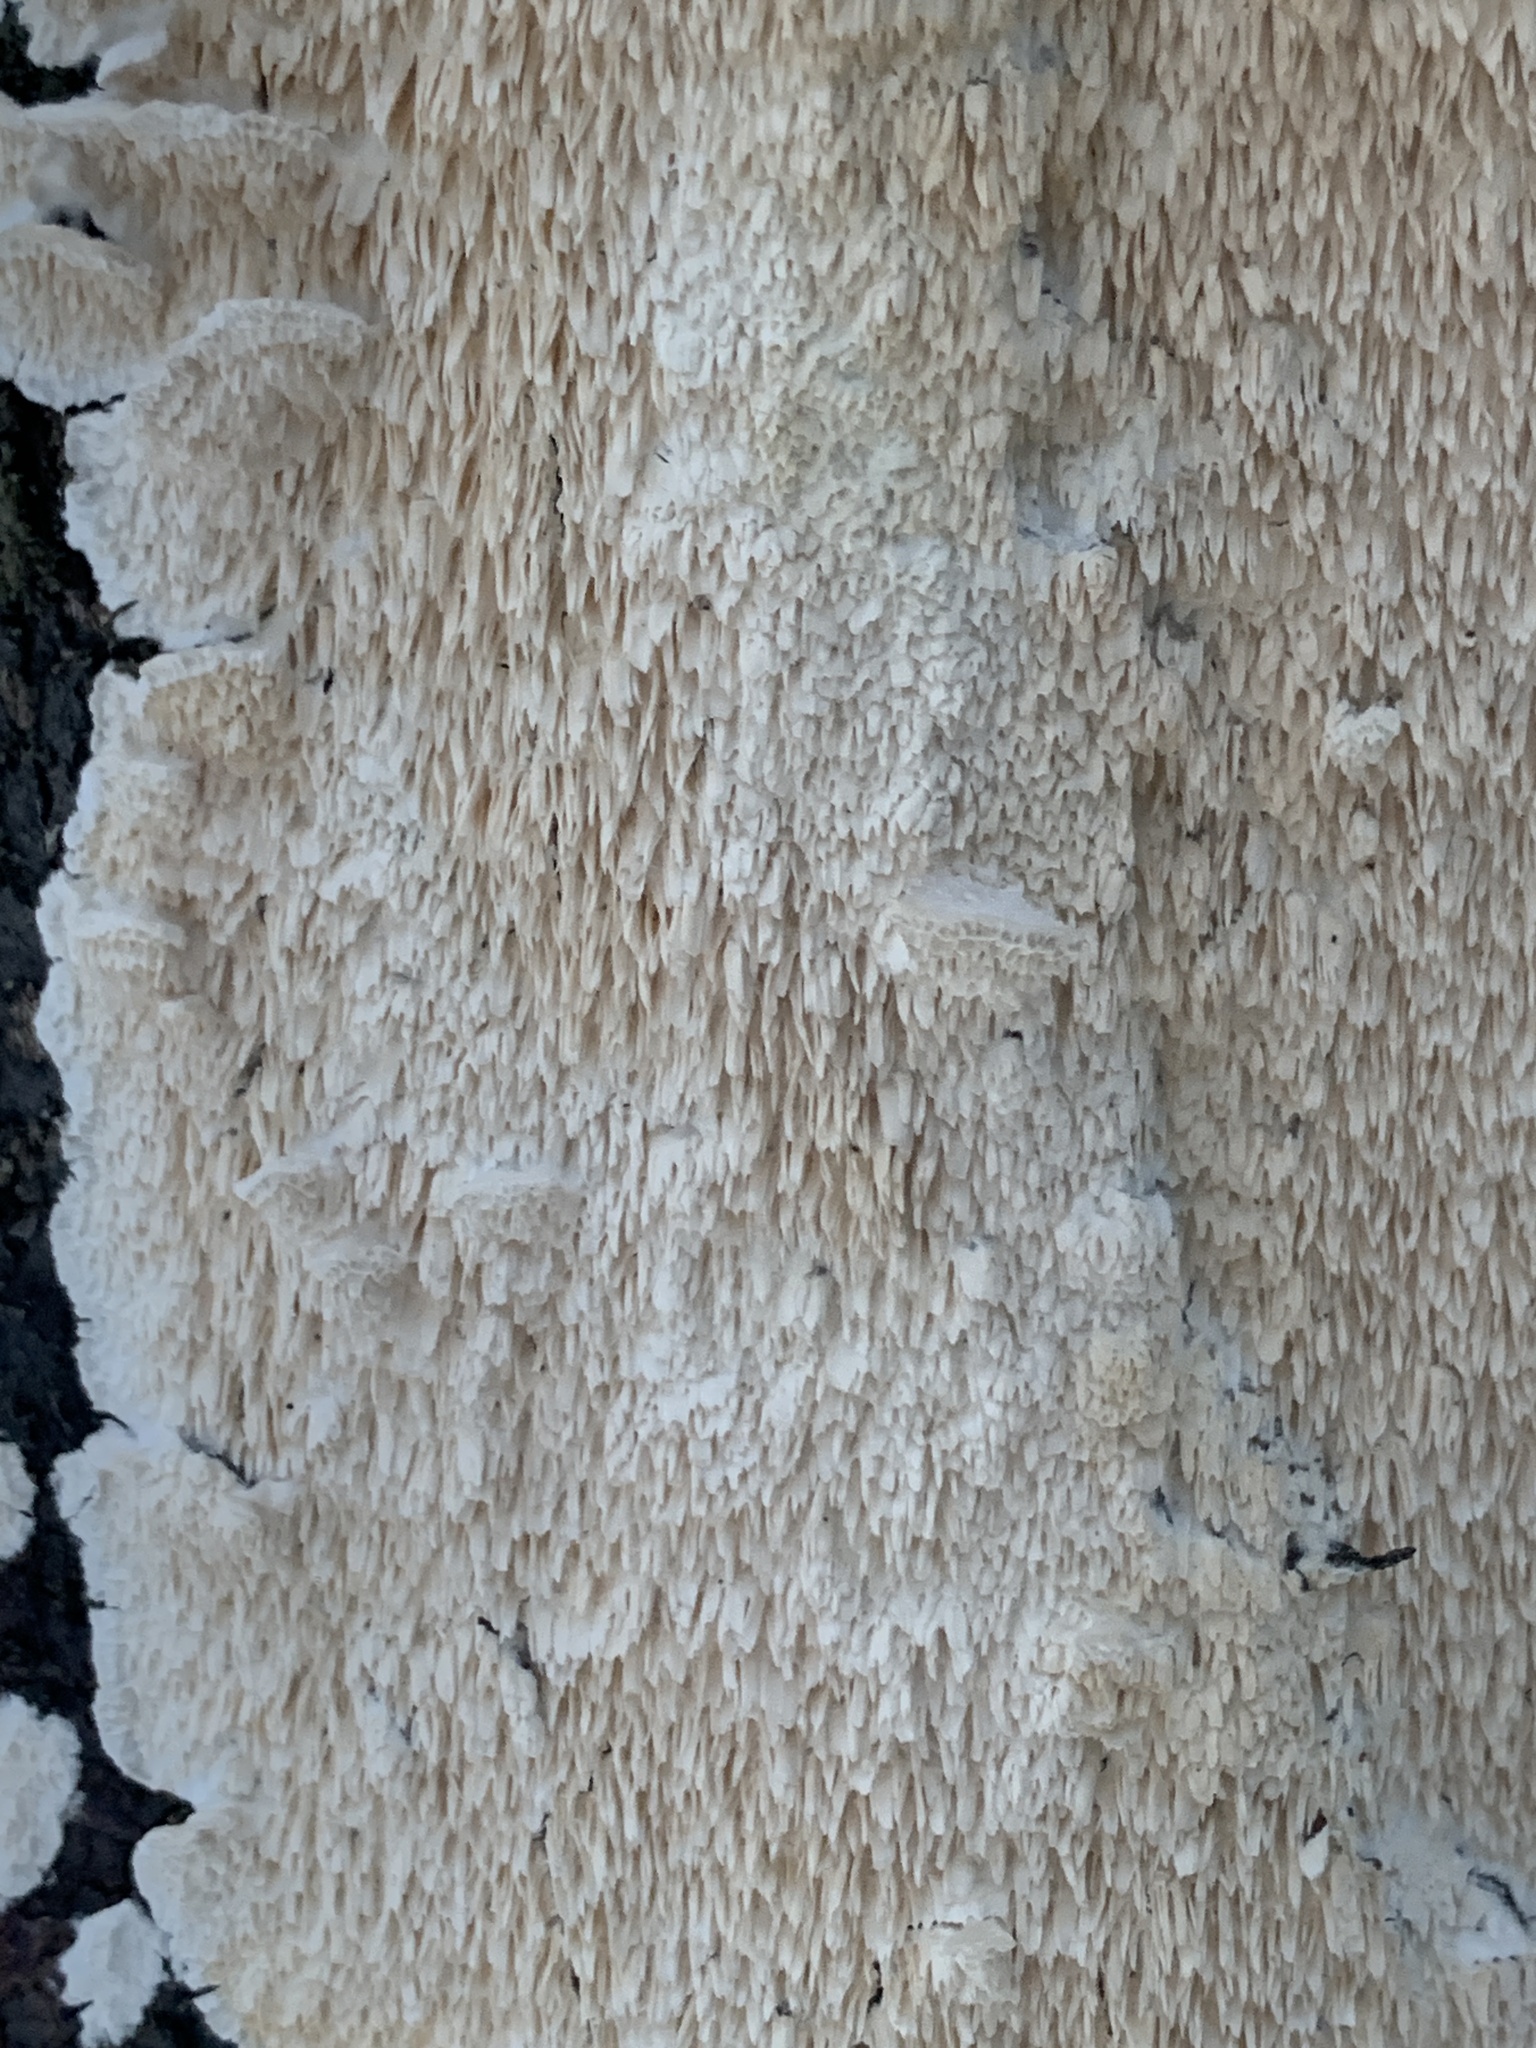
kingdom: Fungi
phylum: Basidiomycota
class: Agaricomycetes
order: Polyporales
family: Irpicaceae
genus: Irpex
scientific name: Irpex lacteus
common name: Milk-white toothed polypore
